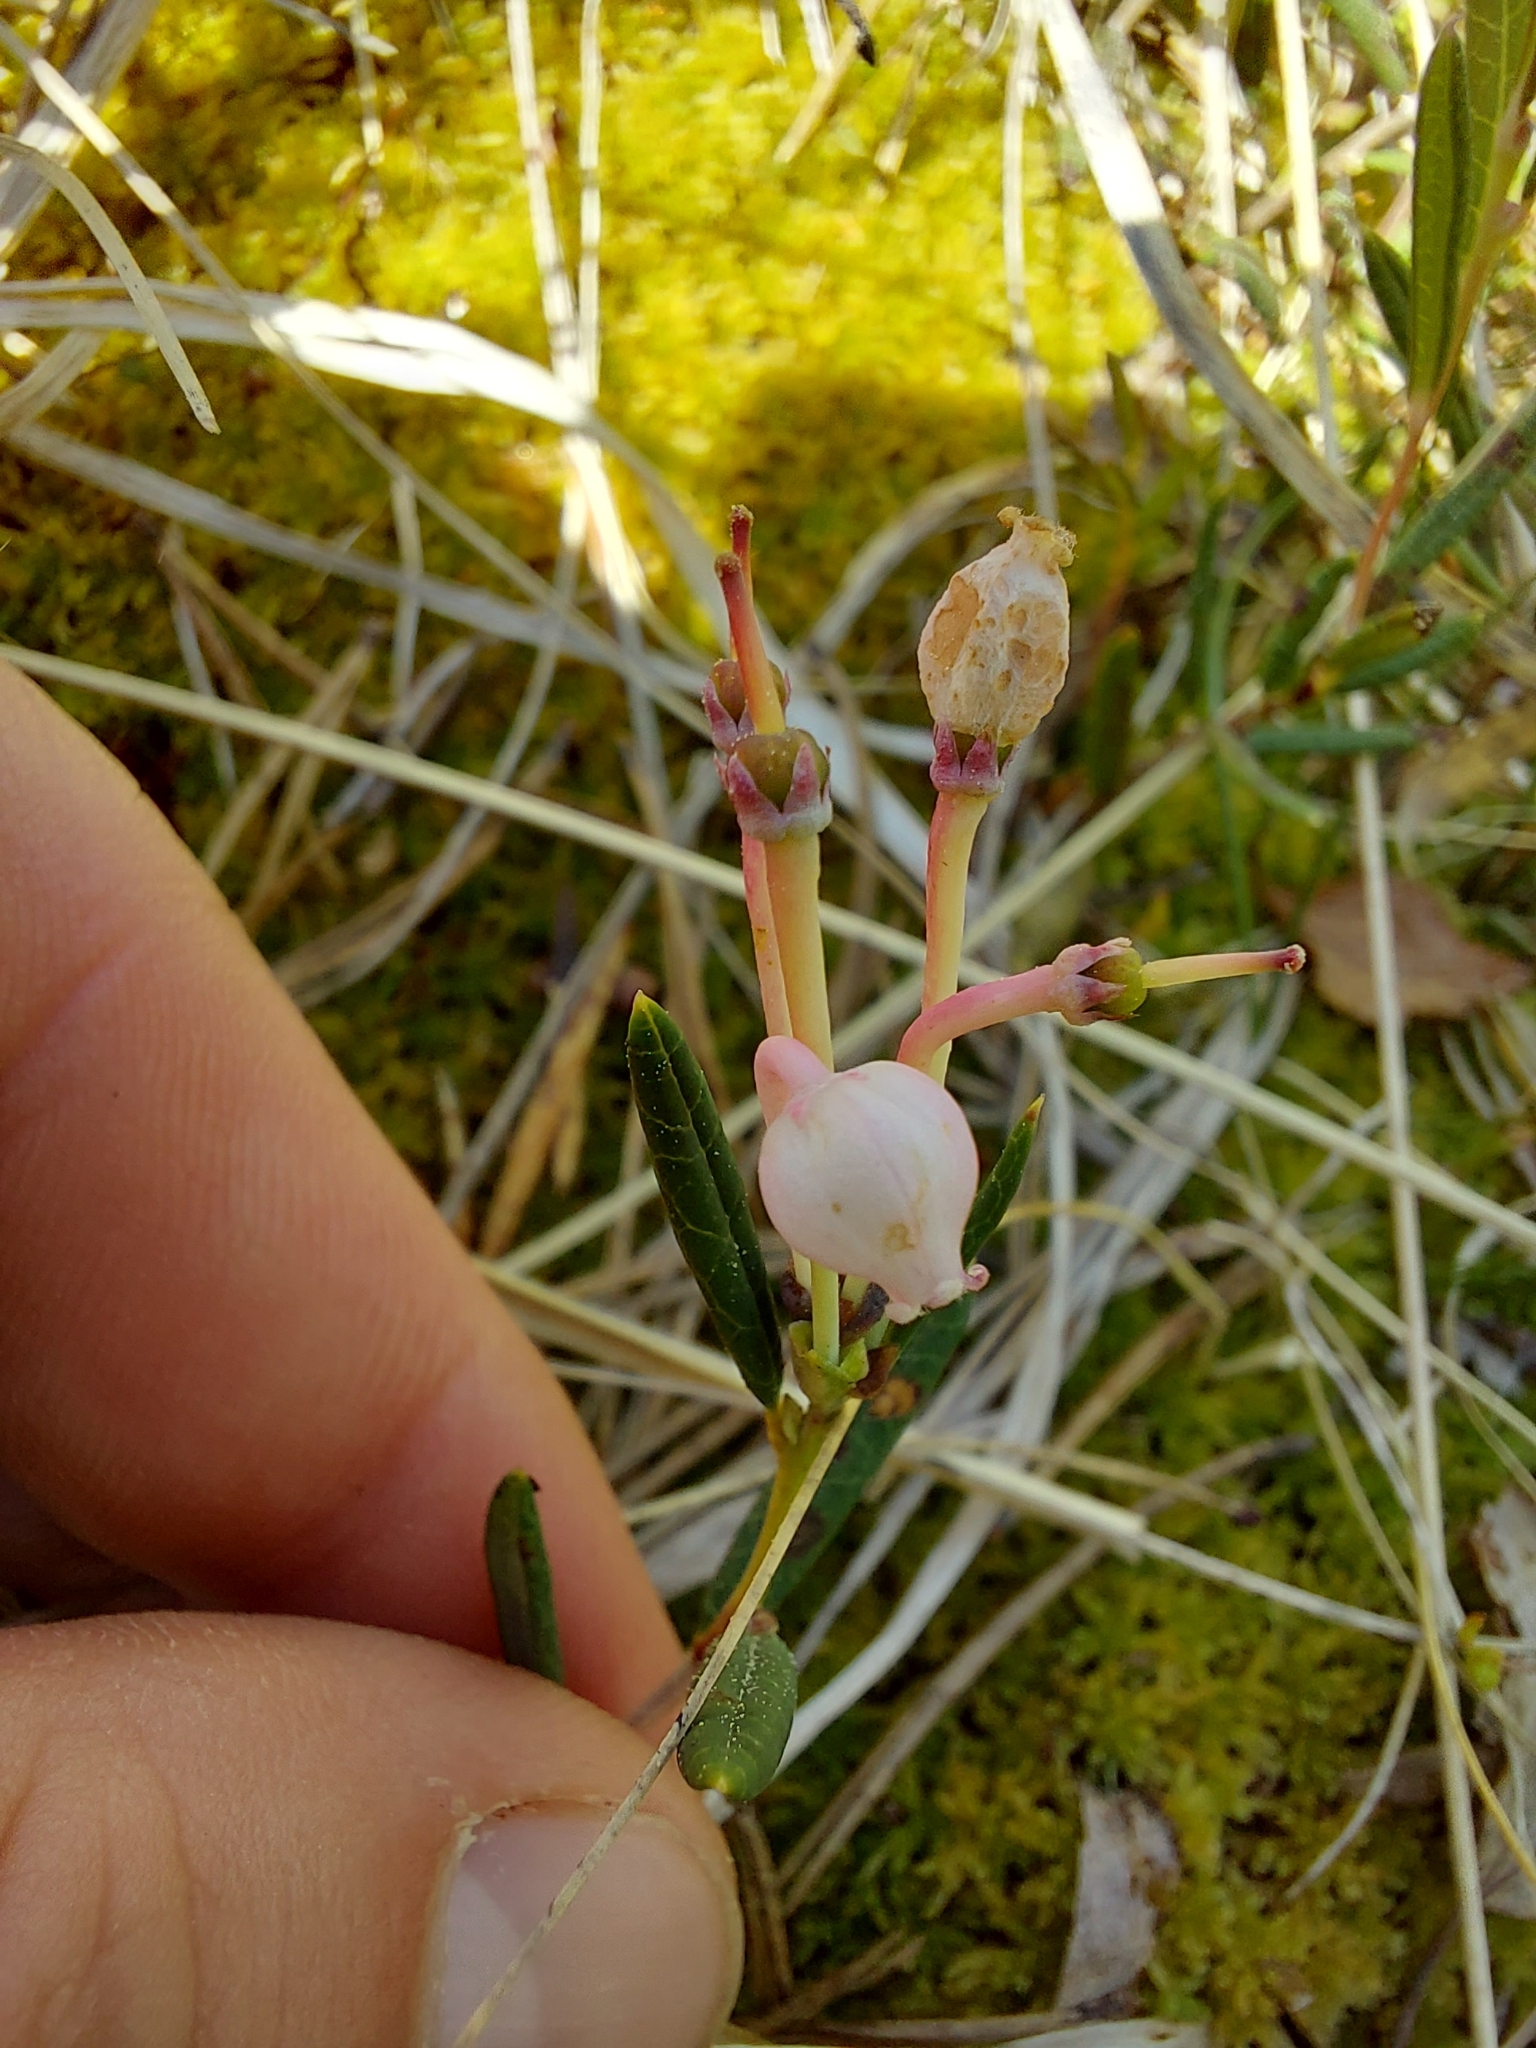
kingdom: Plantae
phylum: Tracheophyta
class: Magnoliopsida
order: Ericales
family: Ericaceae
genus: Andromeda
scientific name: Andromeda polifolia
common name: Bog-rosemary
